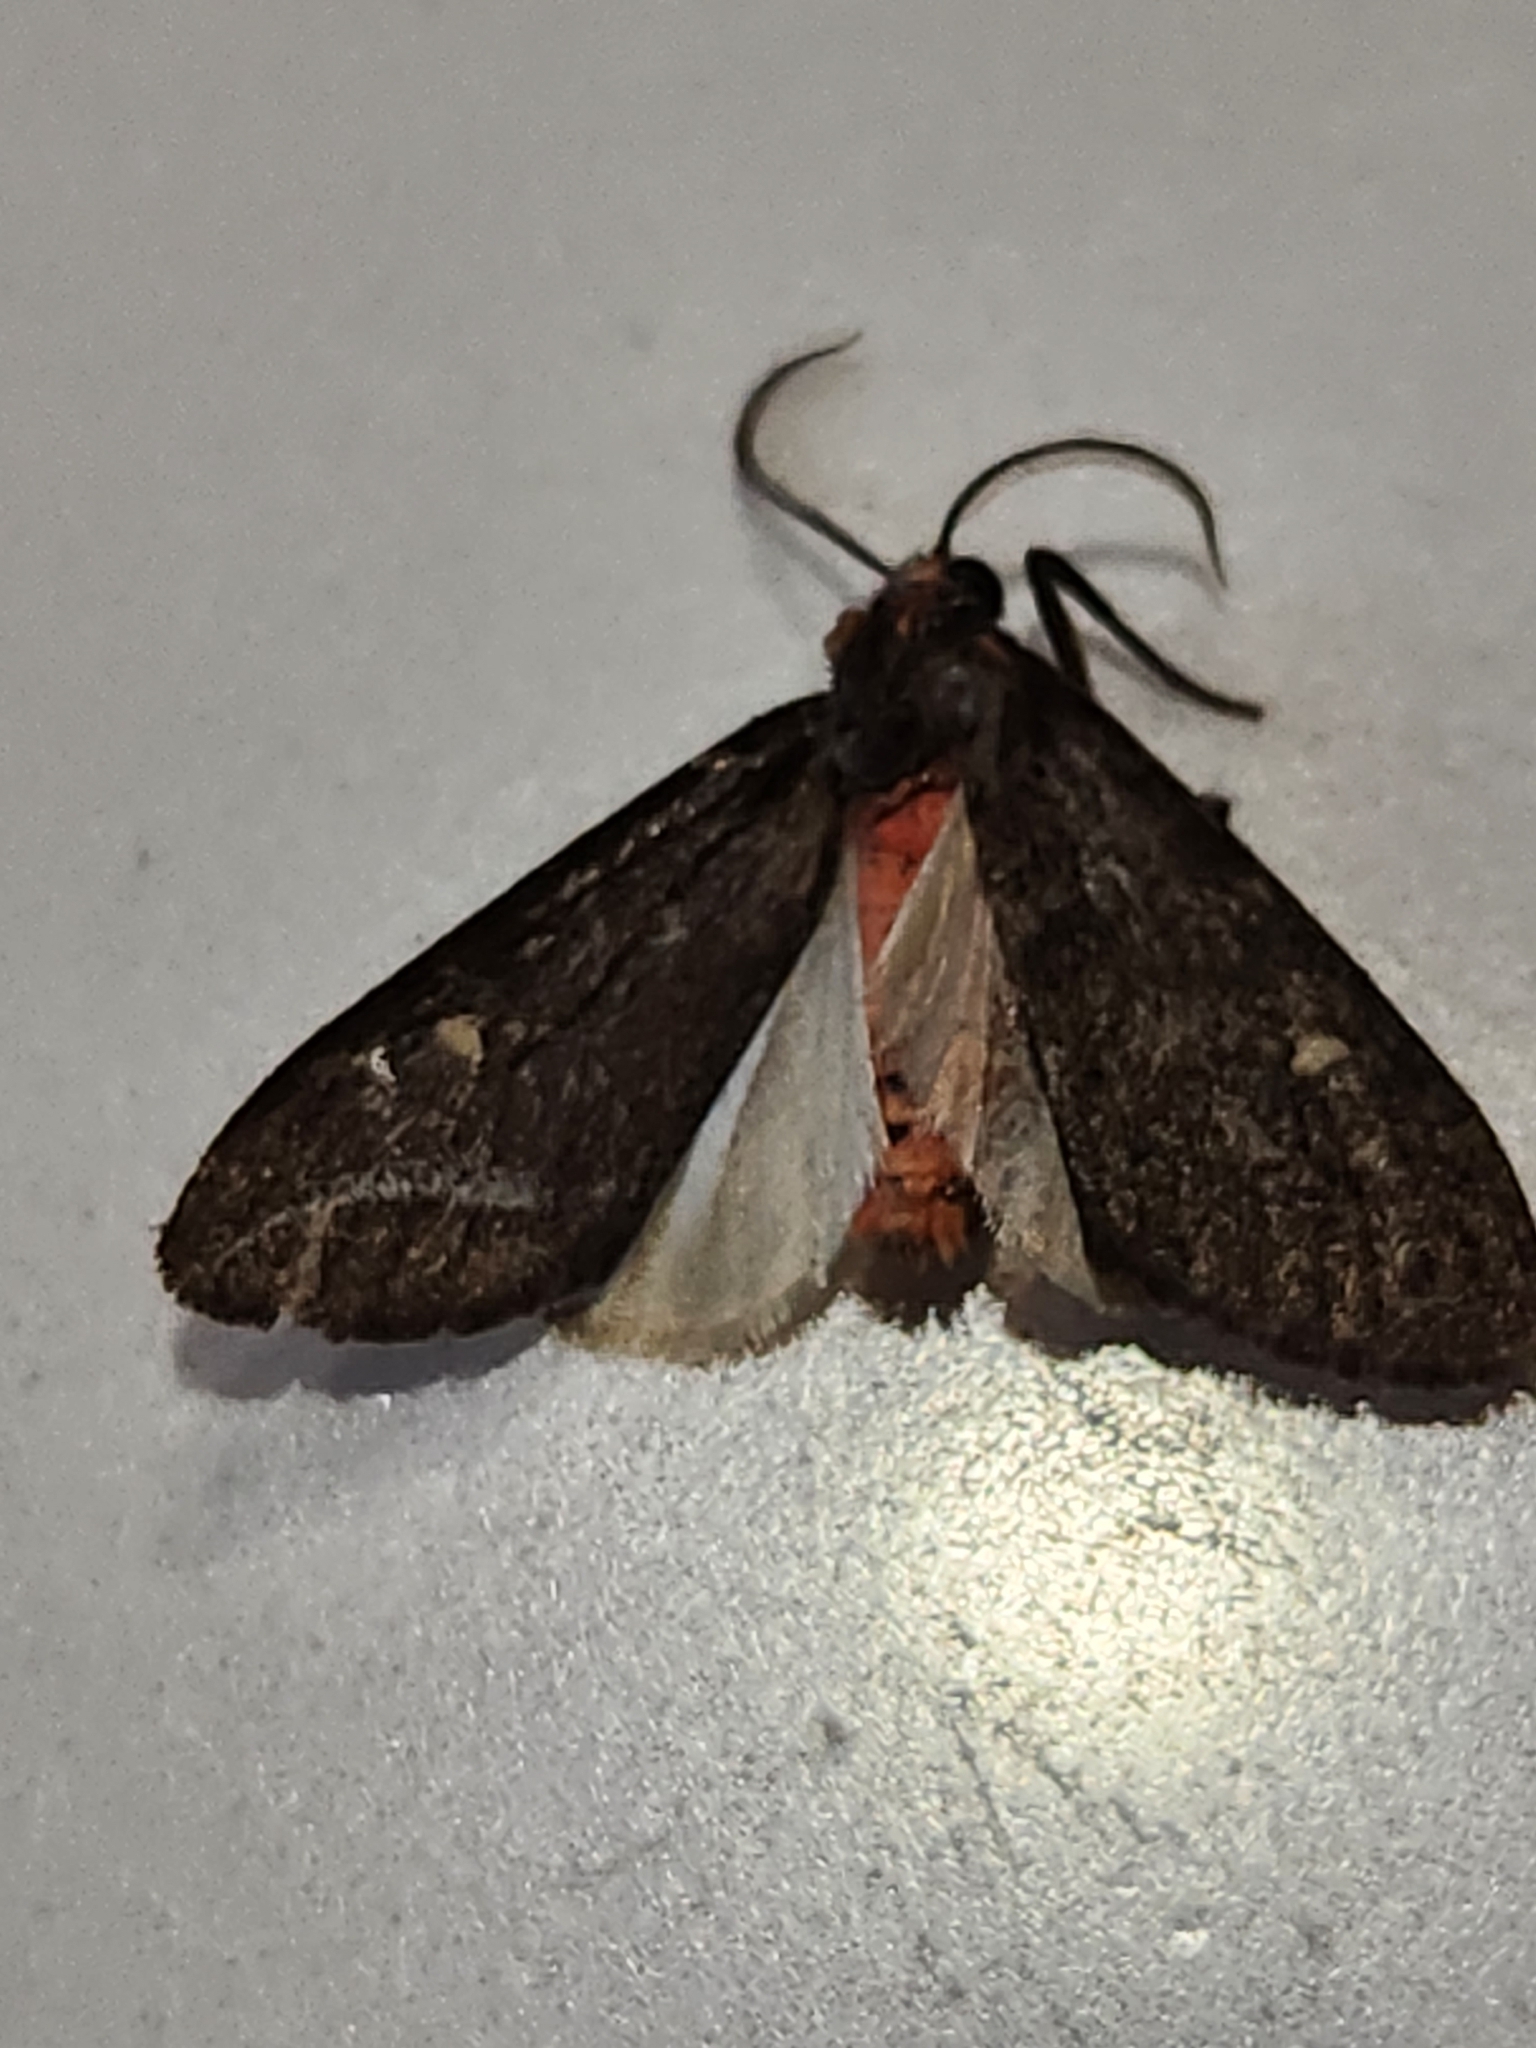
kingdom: Animalia
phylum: Arthropoda
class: Insecta
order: Lepidoptera
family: Erebidae
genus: Euchaetes
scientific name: Euchaetes zella
